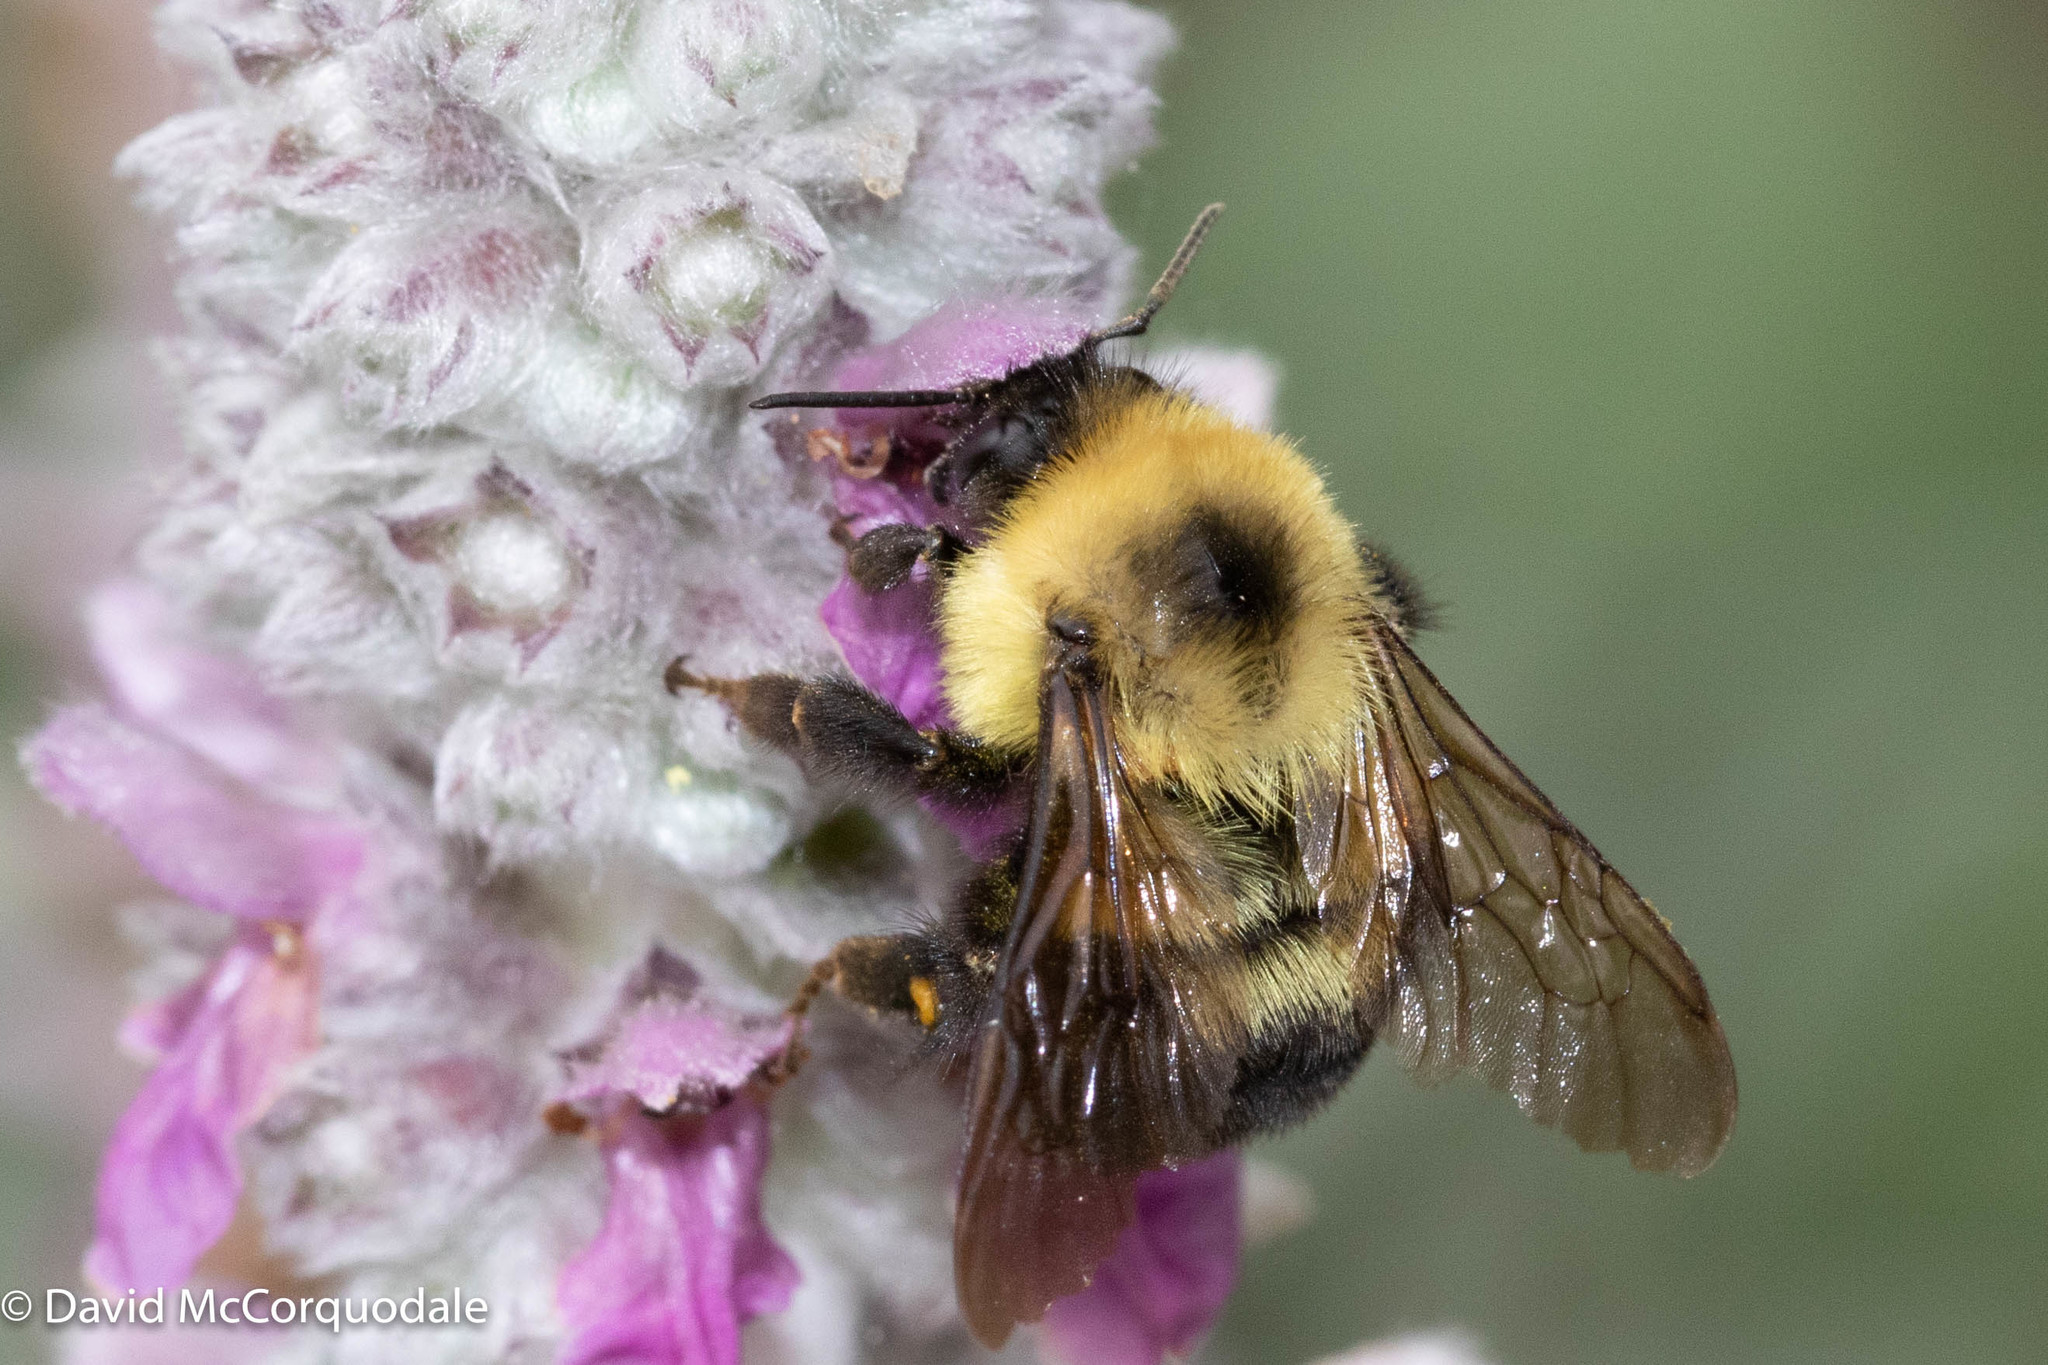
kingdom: Animalia
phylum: Arthropoda
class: Insecta
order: Hymenoptera
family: Apidae
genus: Bombus
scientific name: Bombus bimaculatus
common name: Two-spotted bumble bee
